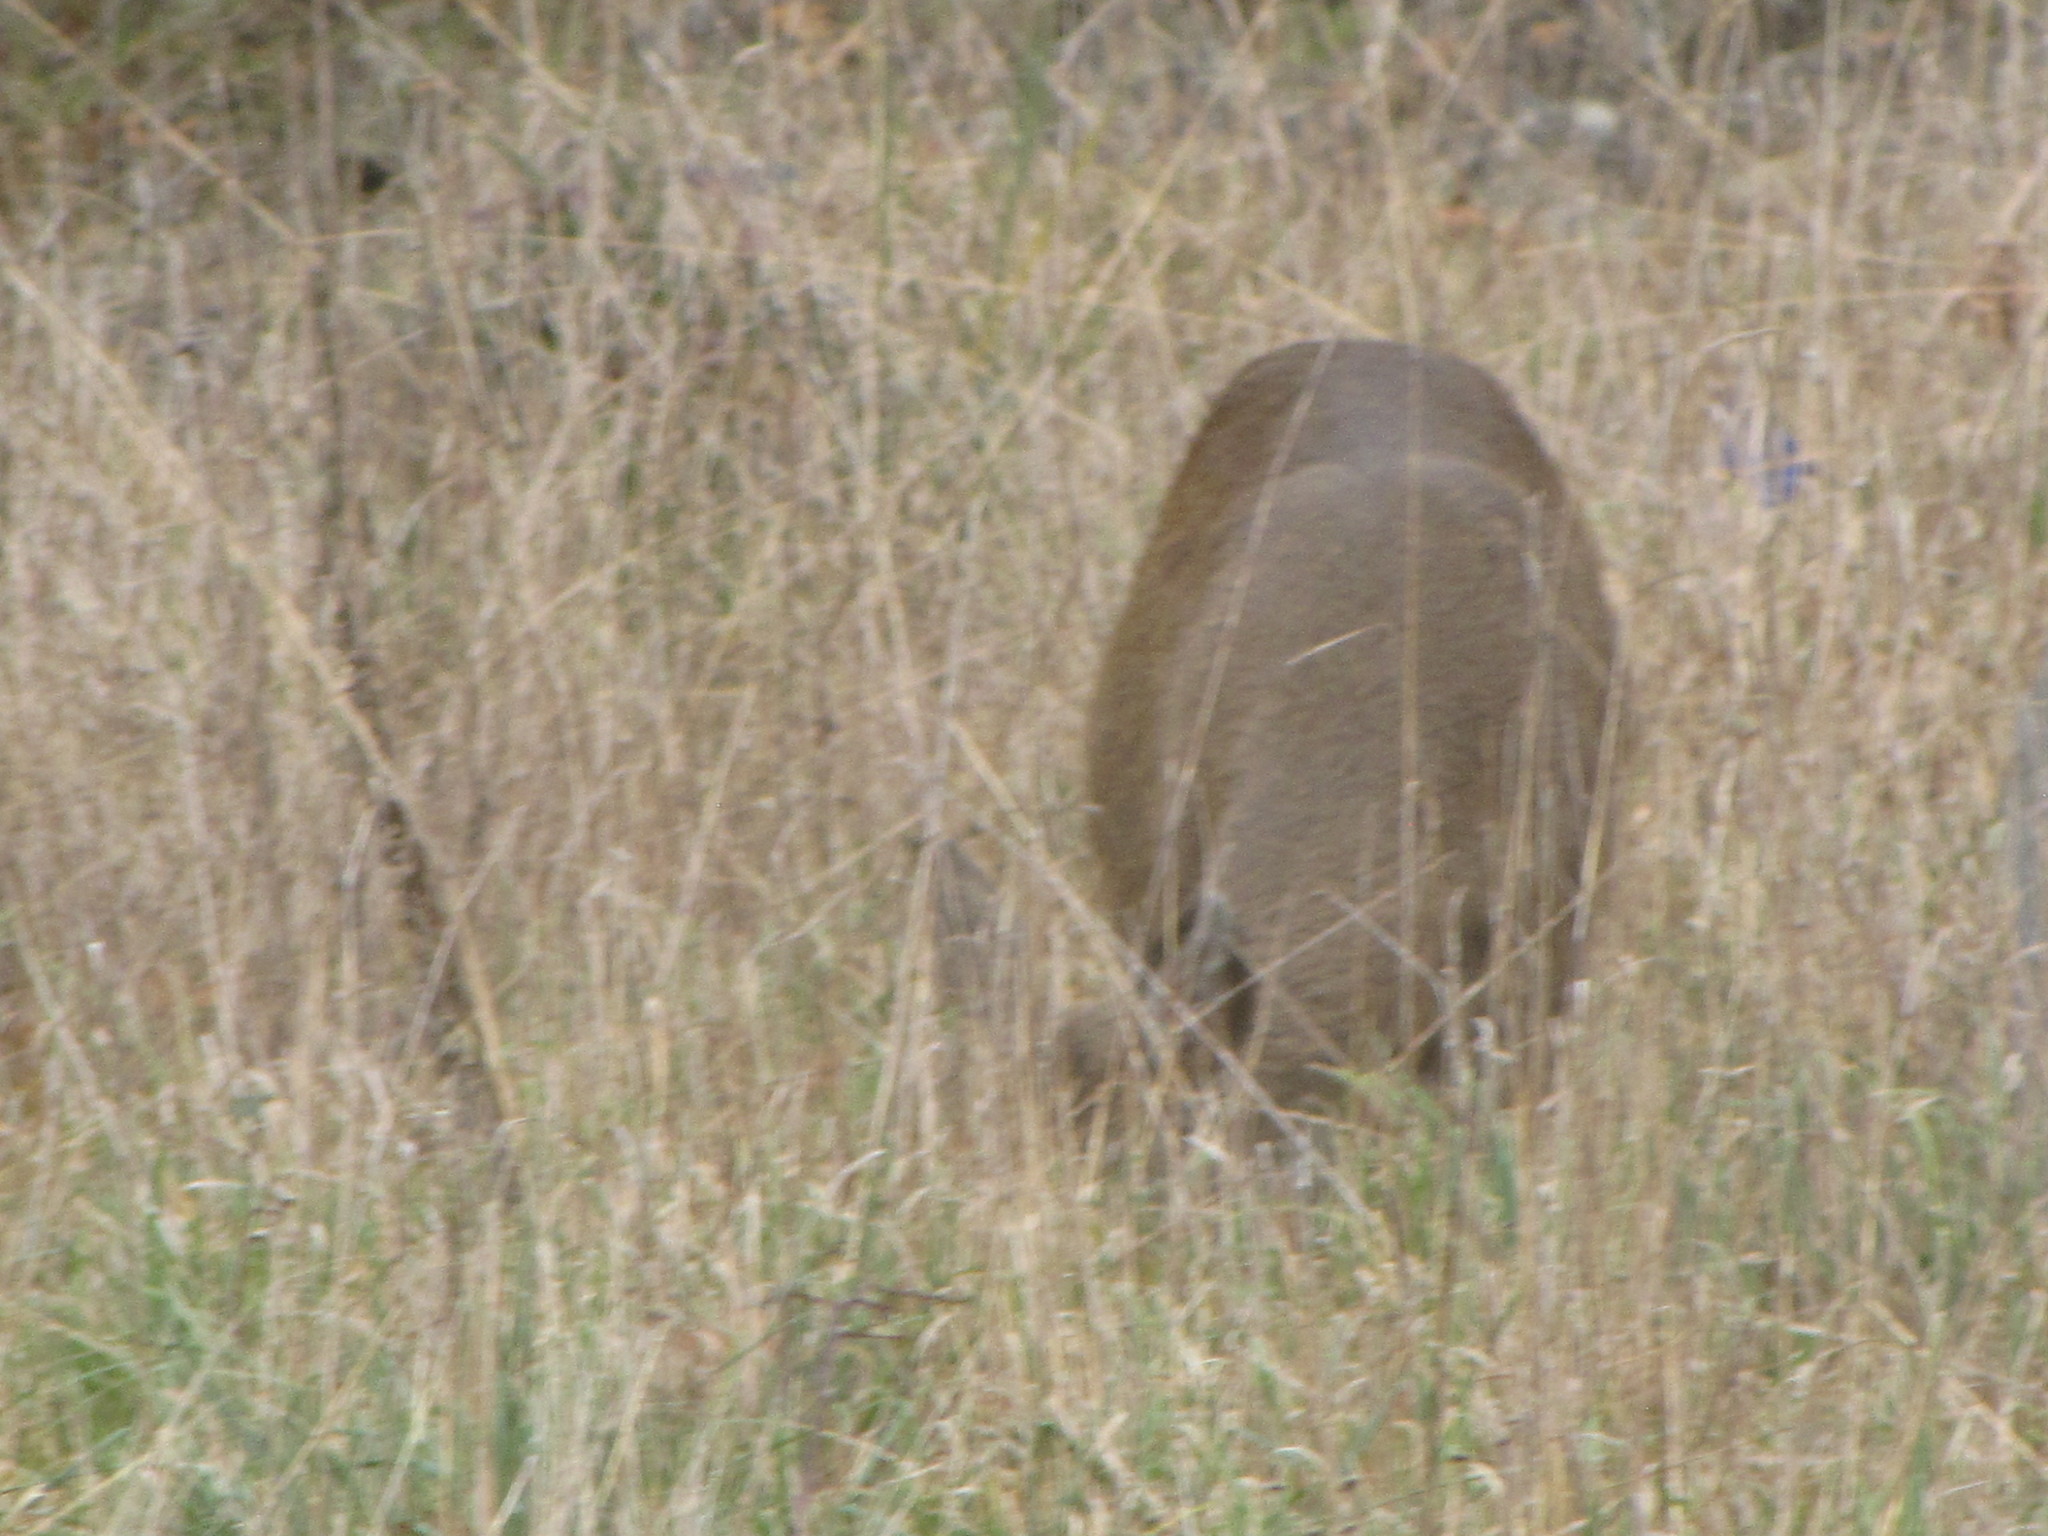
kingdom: Animalia
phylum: Chordata
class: Mammalia
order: Artiodactyla
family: Cervidae
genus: Odocoileus
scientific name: Odocoileus hemionus
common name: Mule deer
